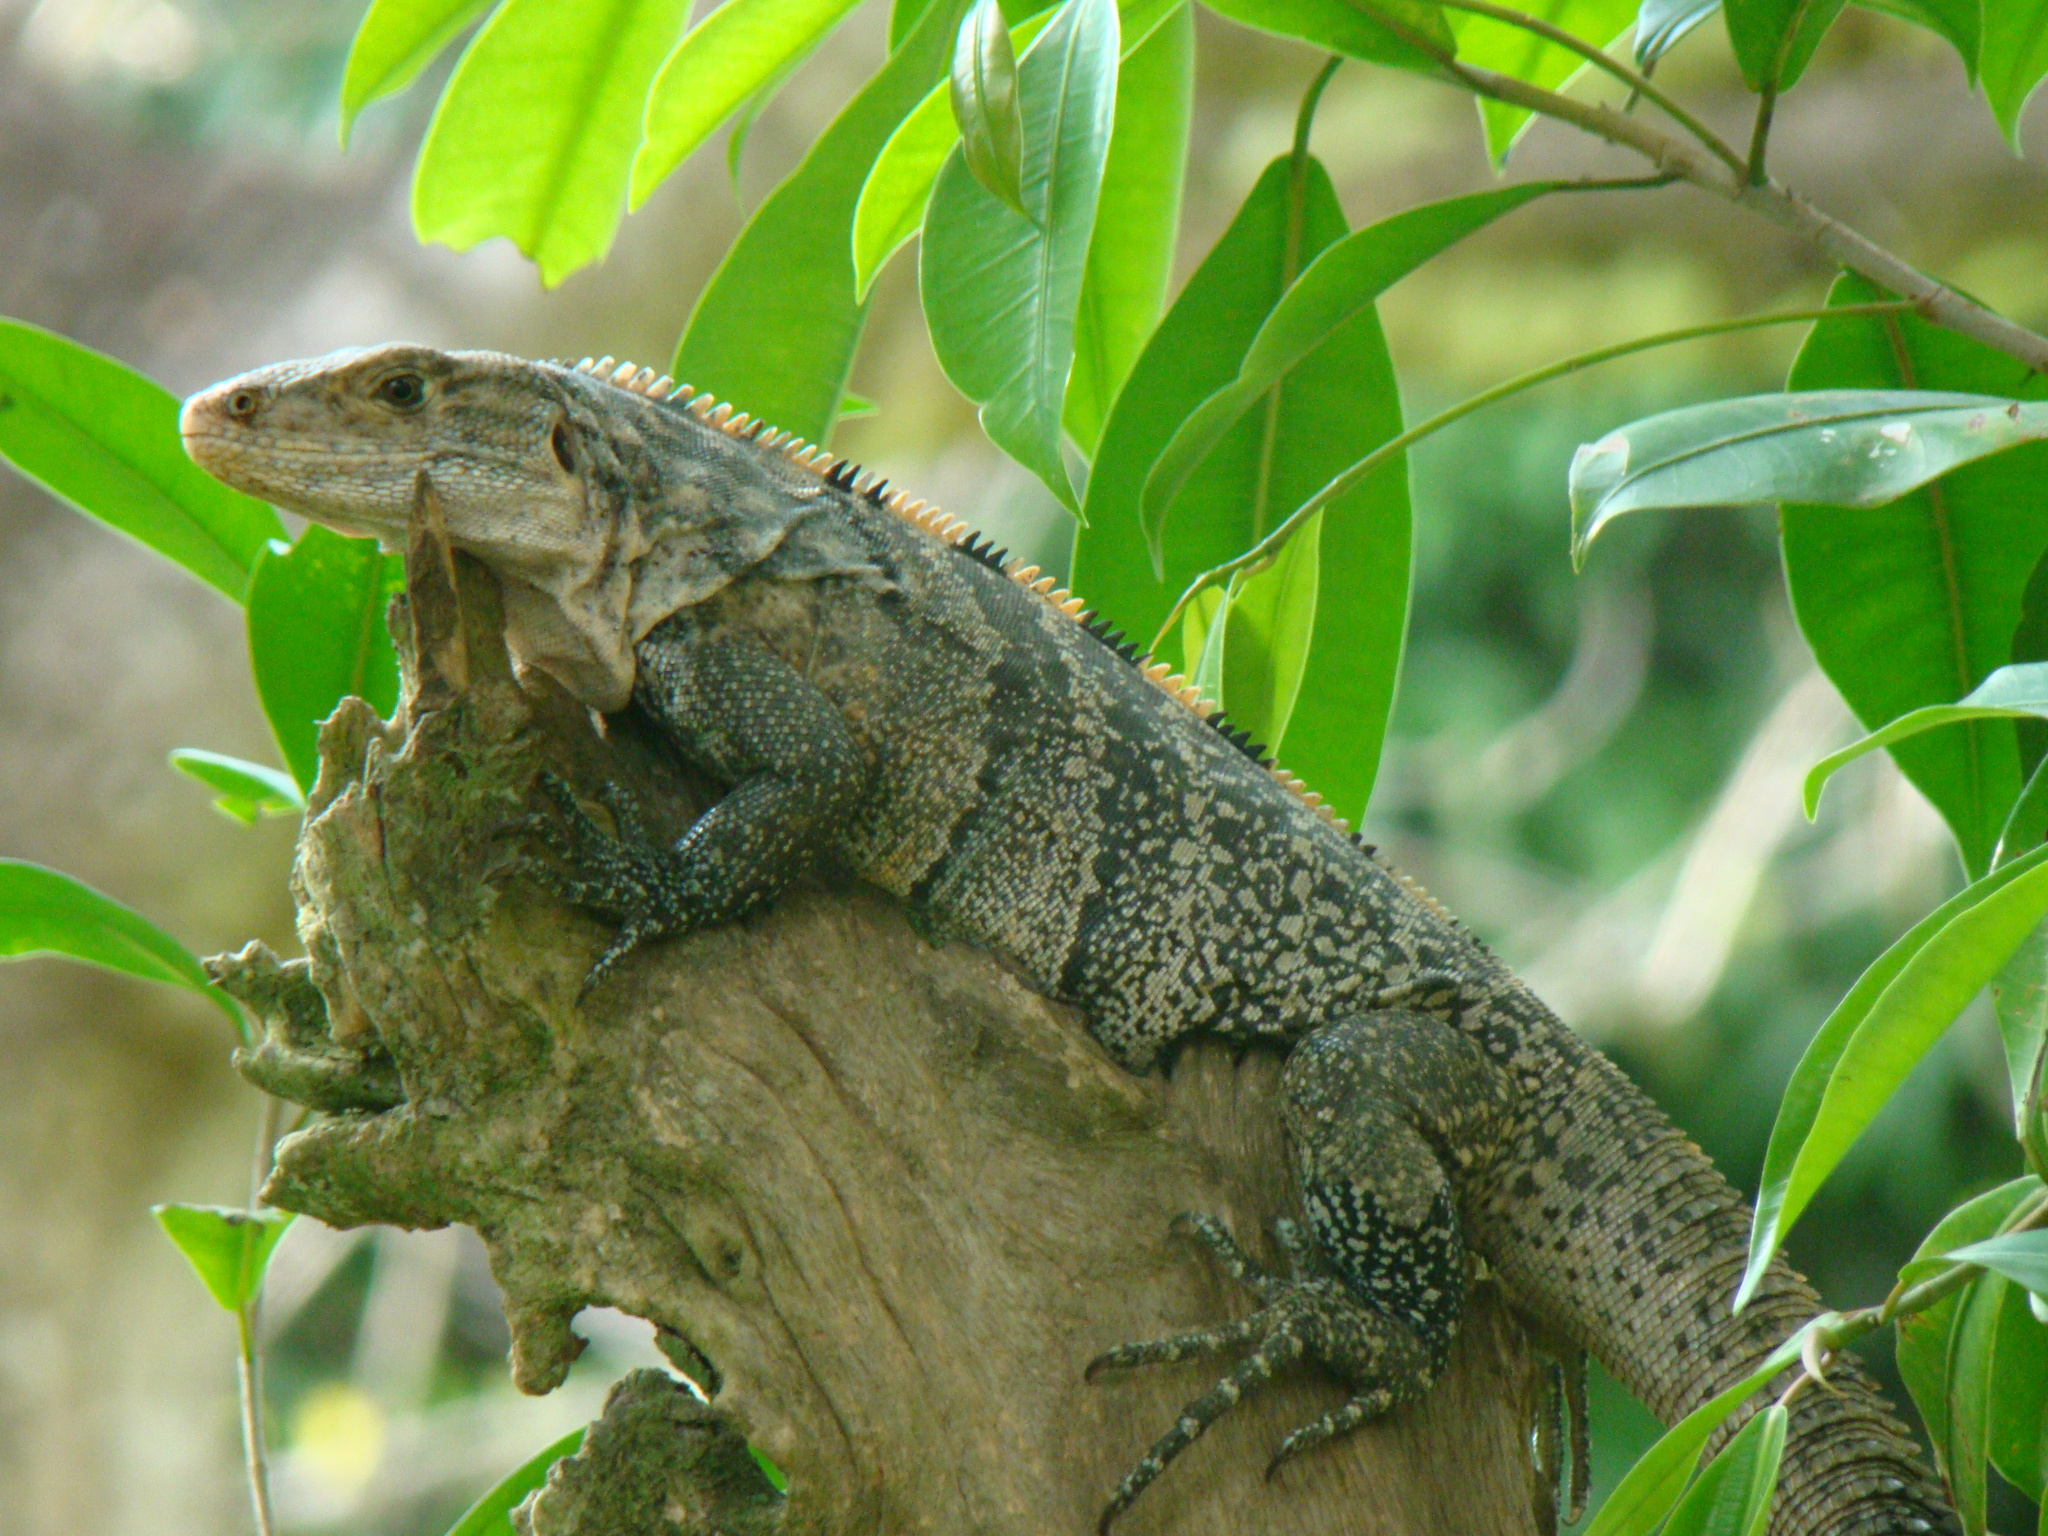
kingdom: Animalia
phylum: Chordata
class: Squamata
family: Iguanidae
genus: Ctenosaura
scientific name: Ctenosaura similis
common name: Black spiny-tailed iguana
